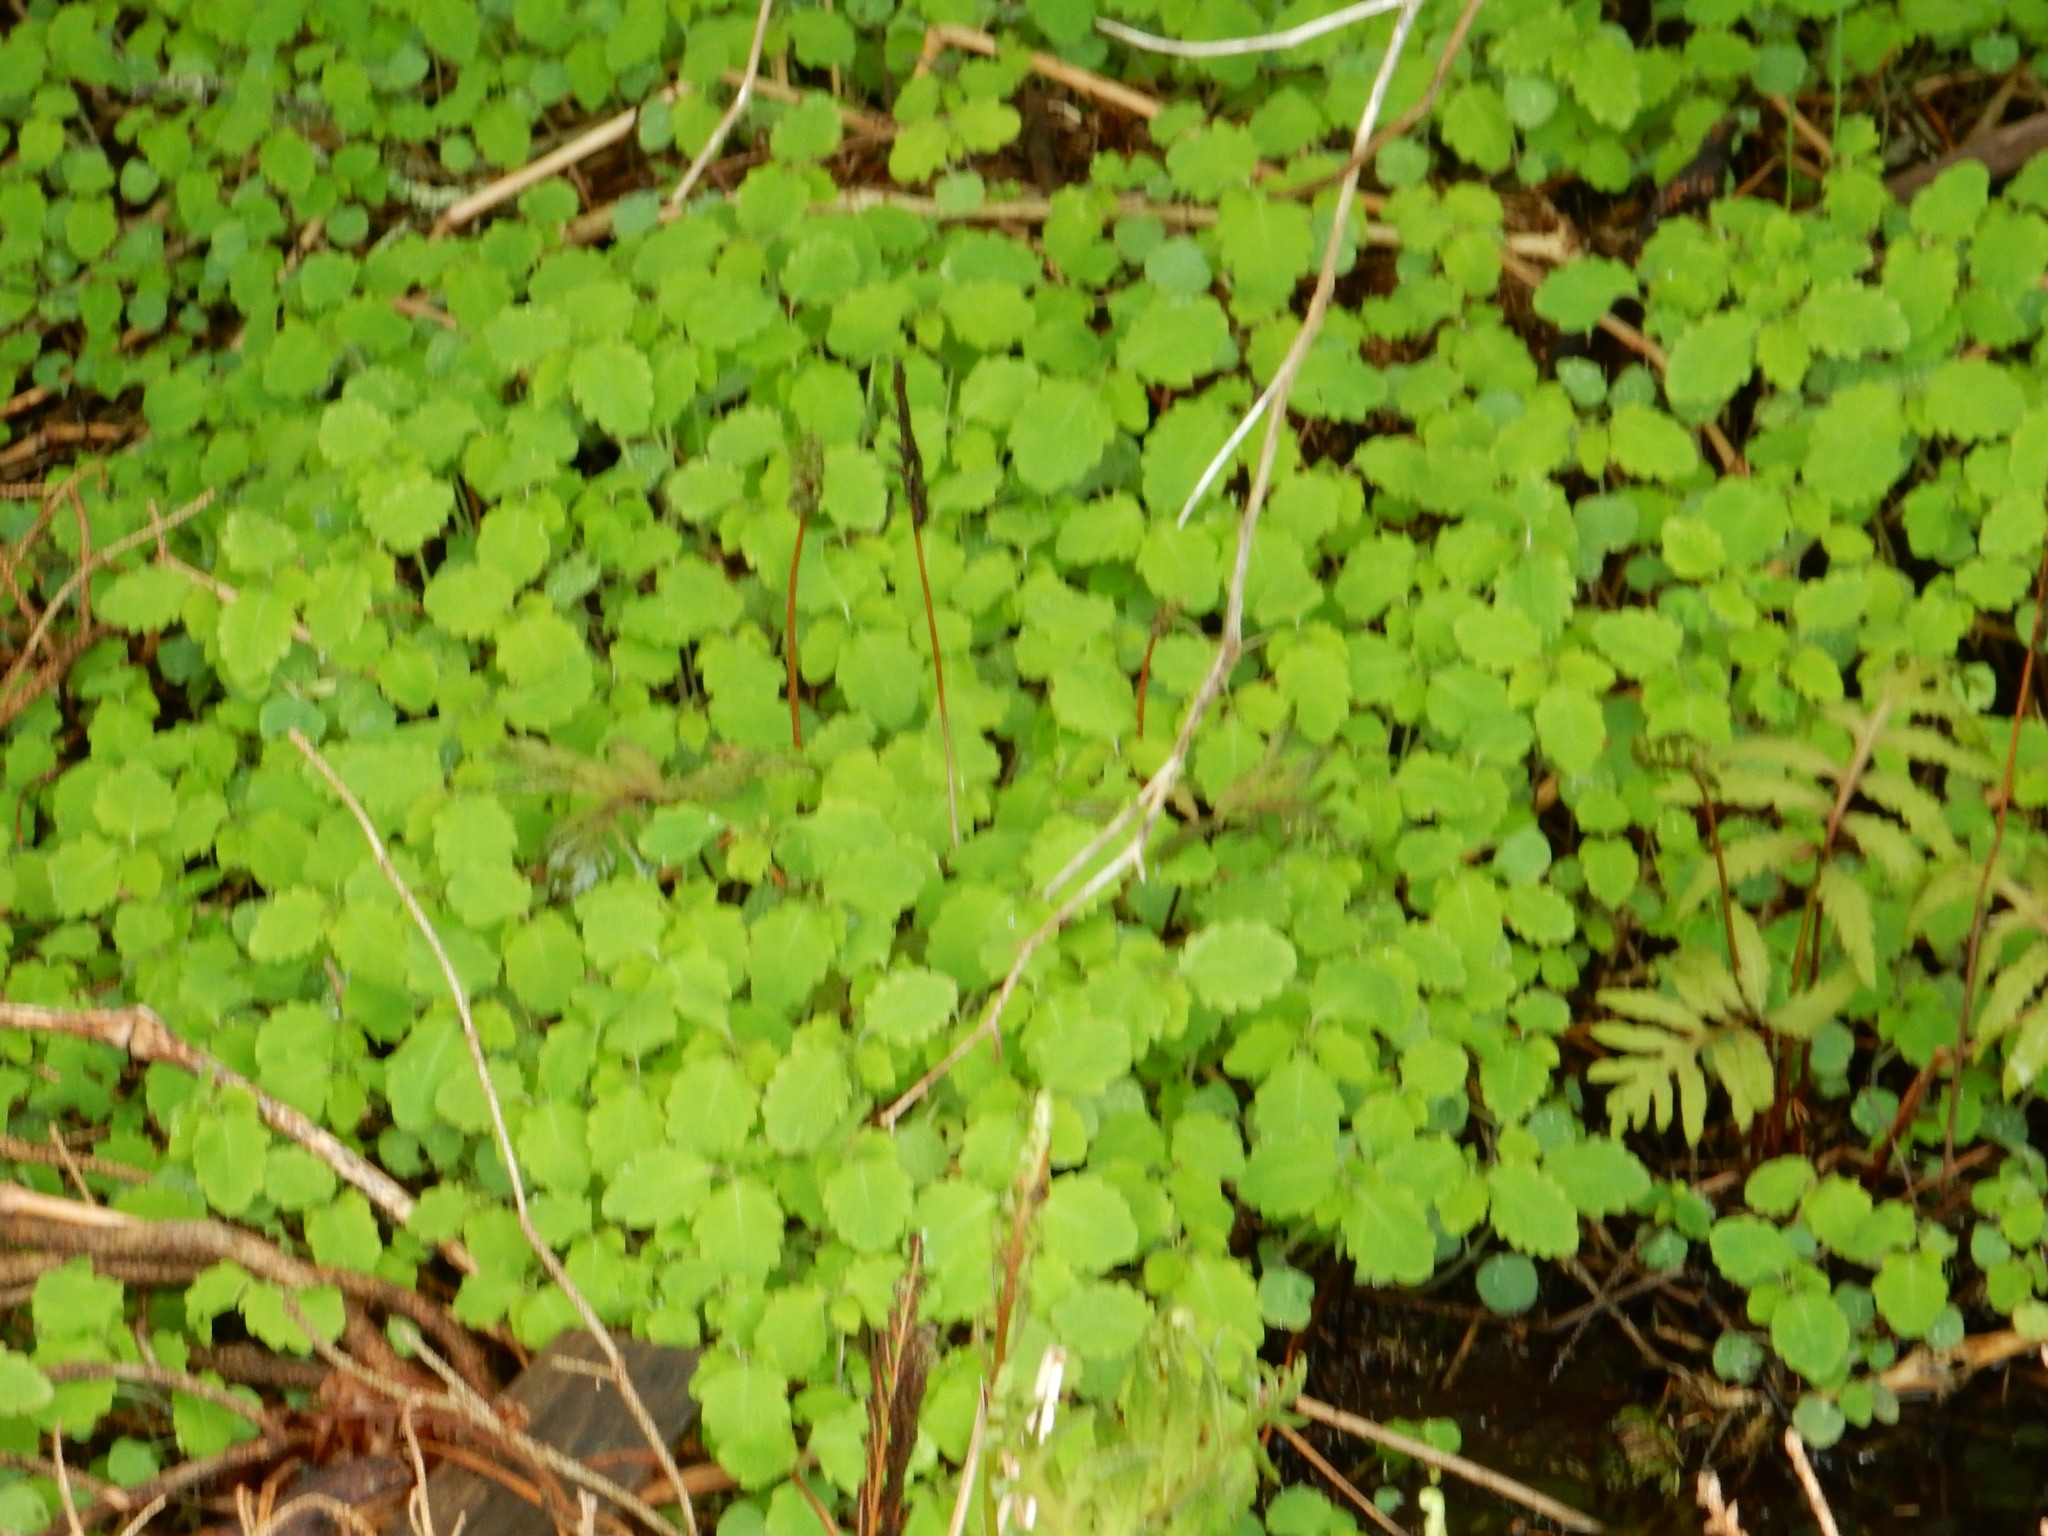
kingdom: Plantae
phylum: Tracheophyta
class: Magnoliopsida
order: Ericales
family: Balsaminaceae
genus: Impatiens
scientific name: Impatiens
